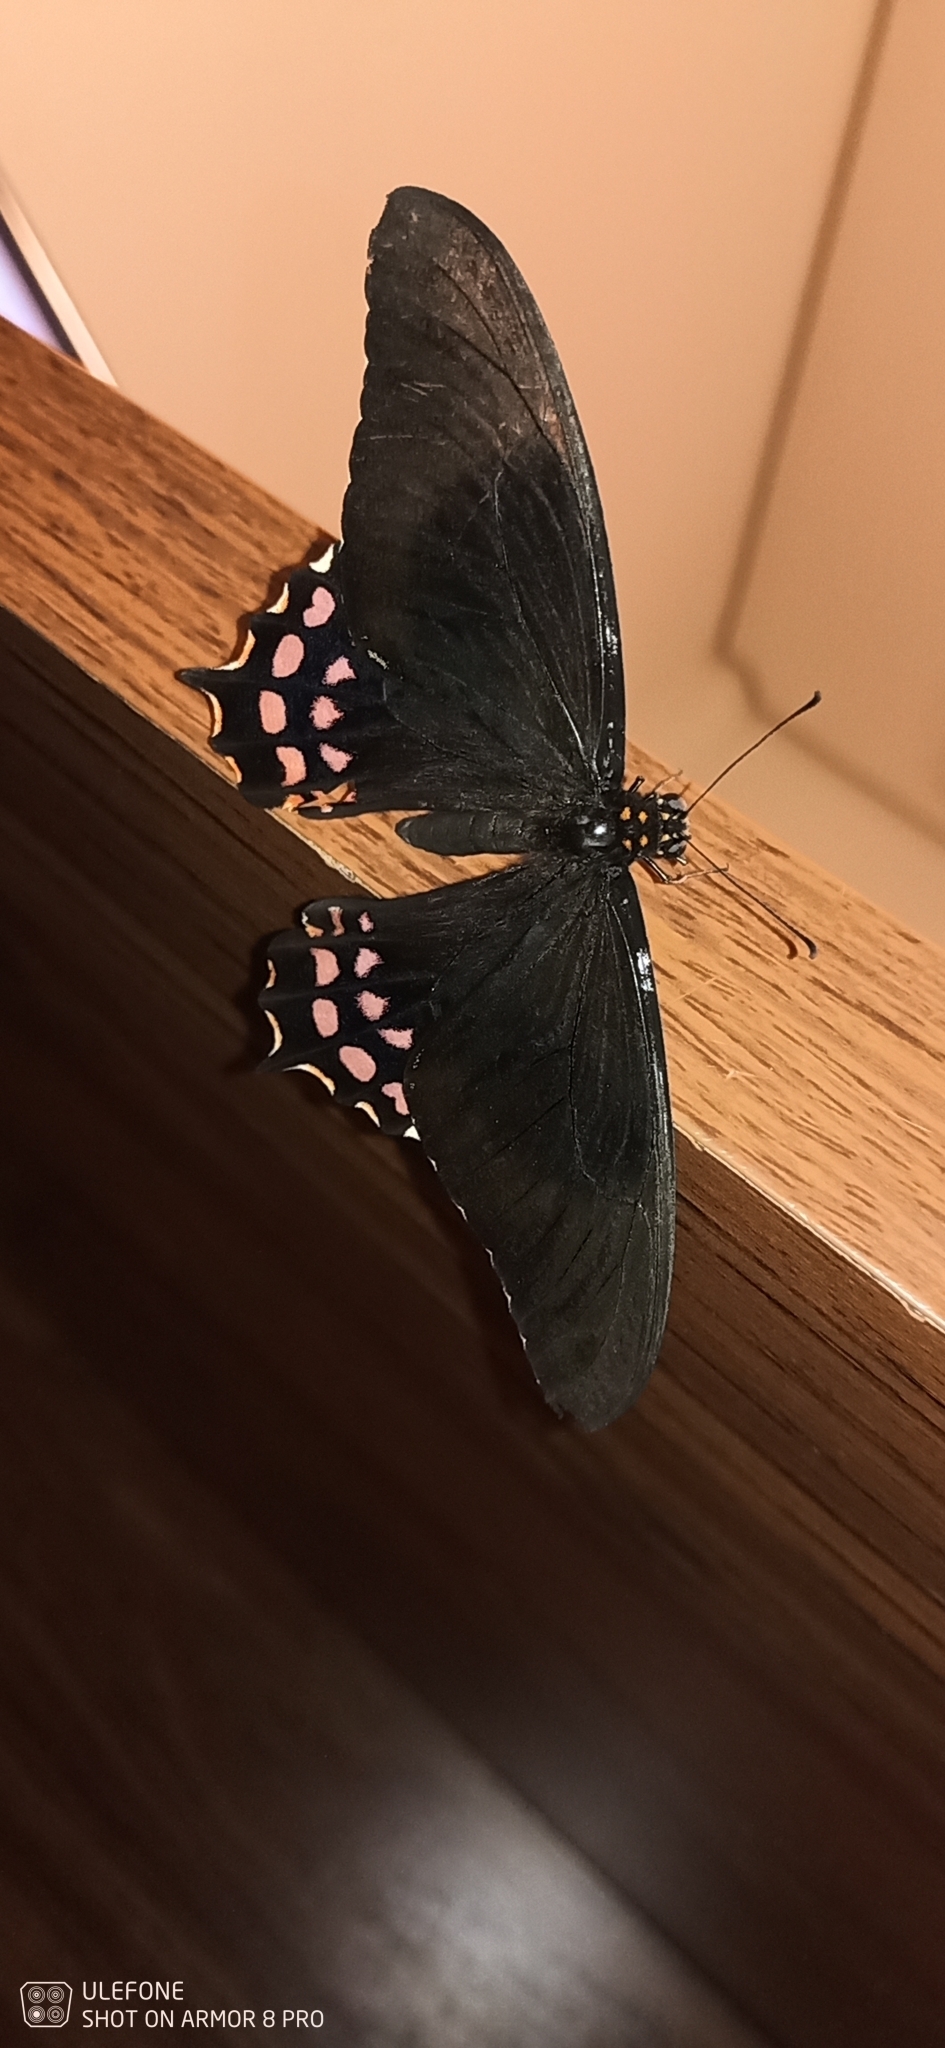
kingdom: Animalia
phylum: Arthropoda
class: Insecta
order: Lepidoptera
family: Papilionidae
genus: Heraclides
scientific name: Heraclides
